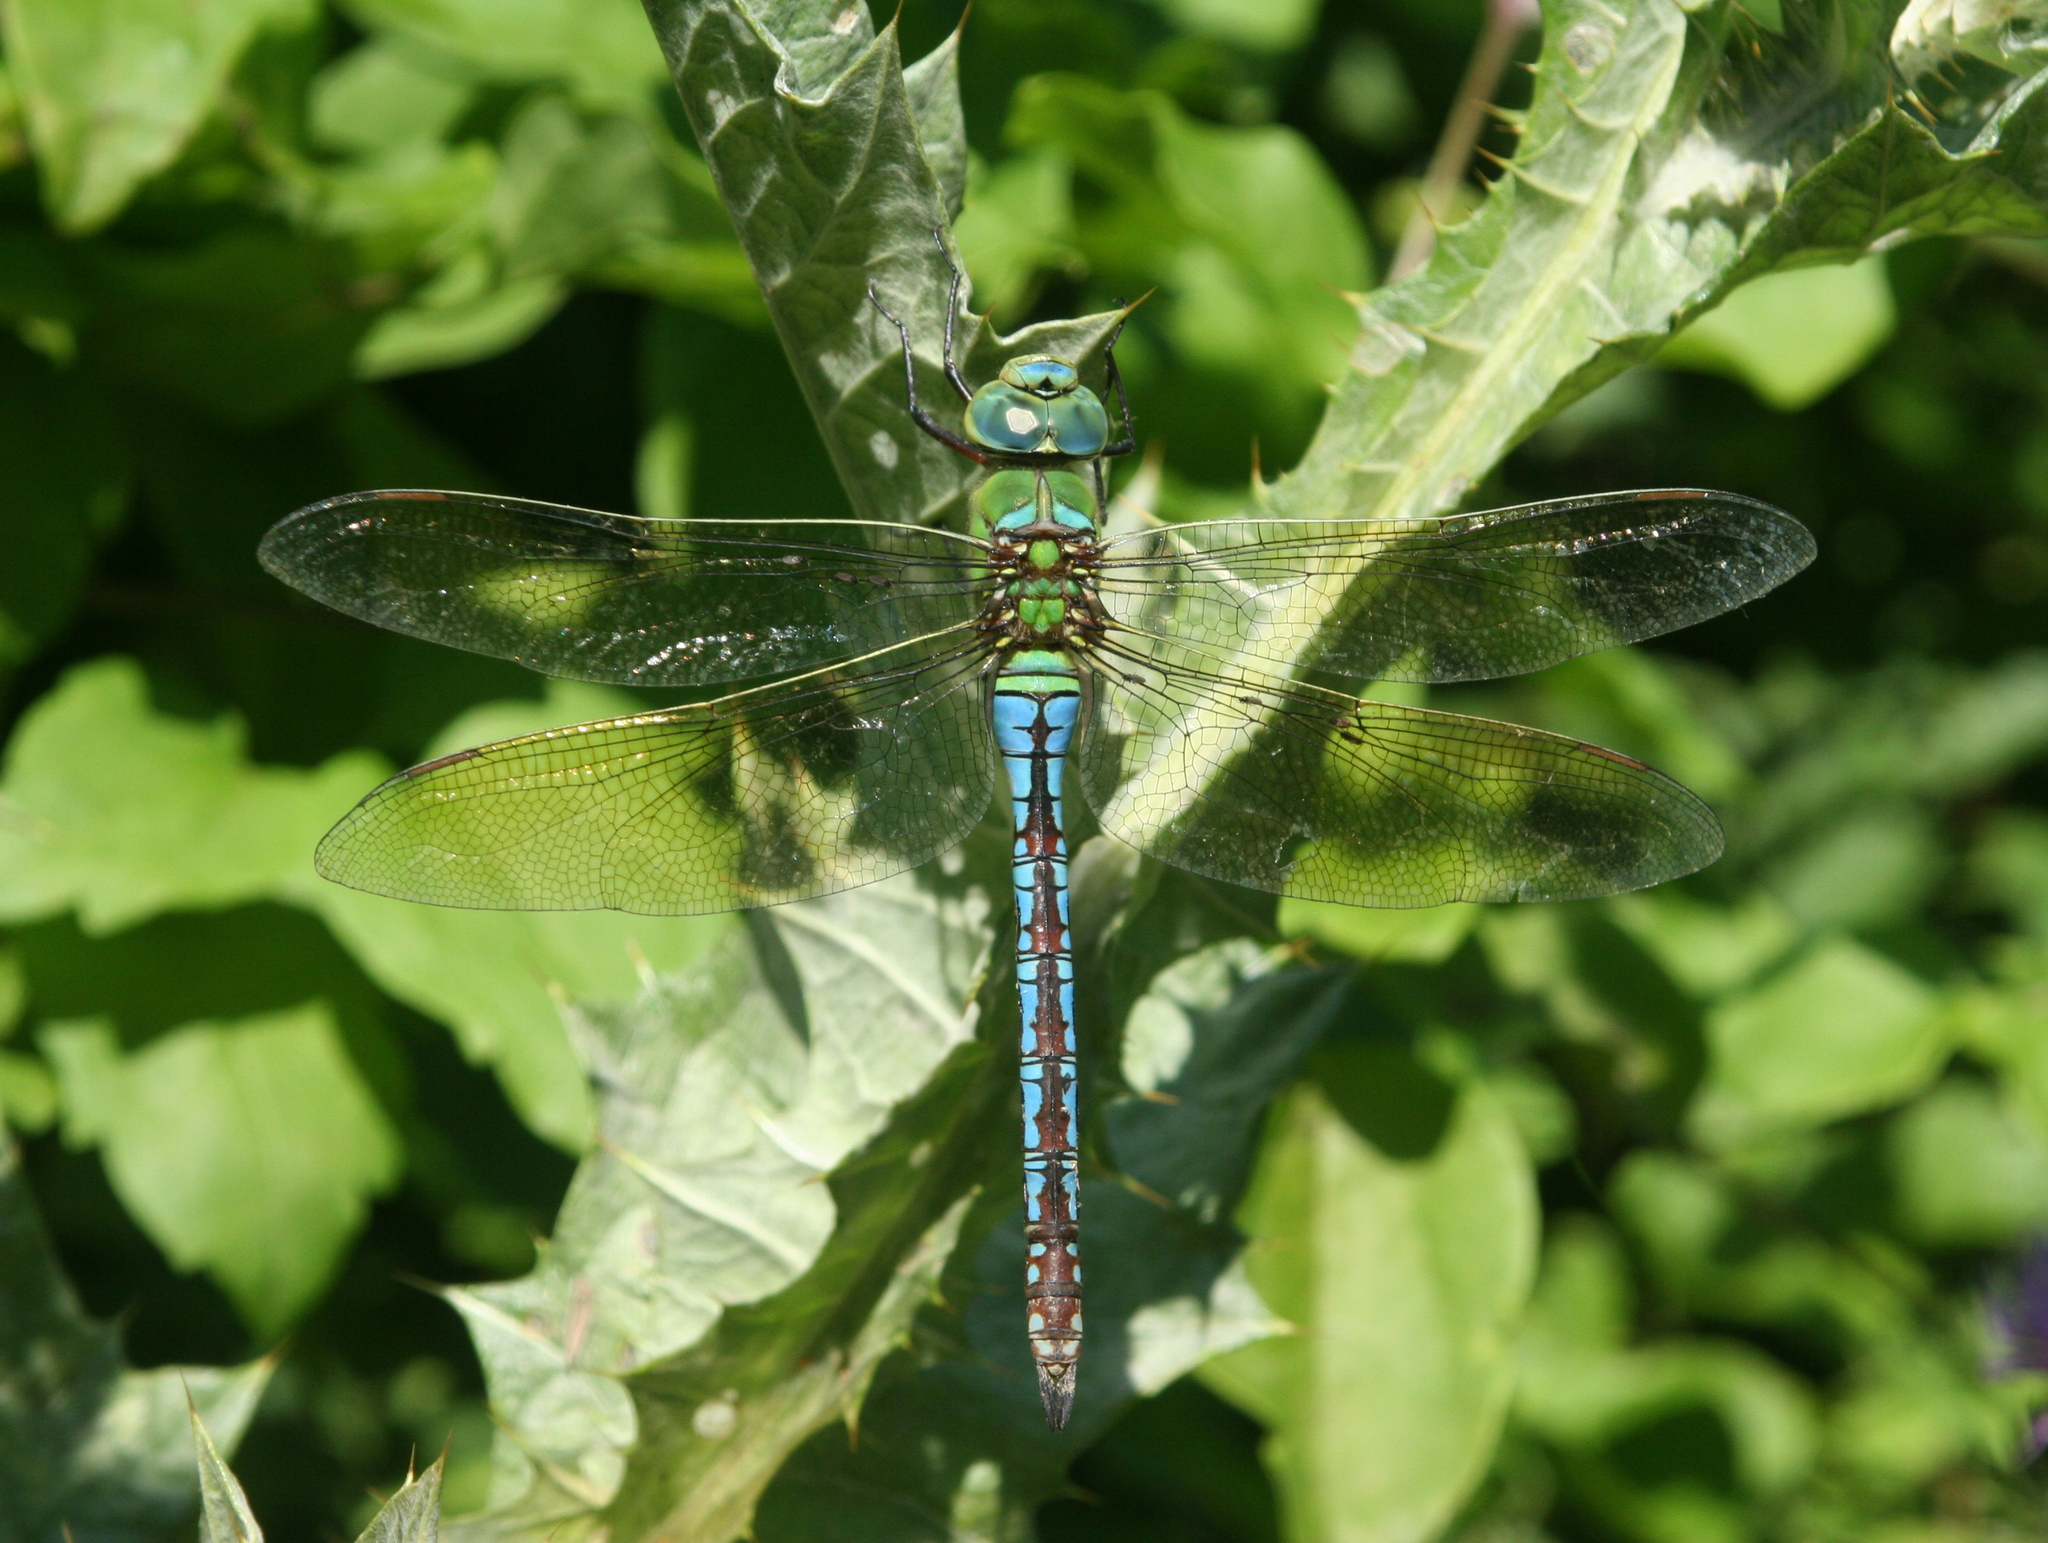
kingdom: Animalia
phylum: Arthropoda
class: Insecta
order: Odonata
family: Aeshnidae
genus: Anax
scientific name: Anax imperator
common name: Emperor dragonfly
